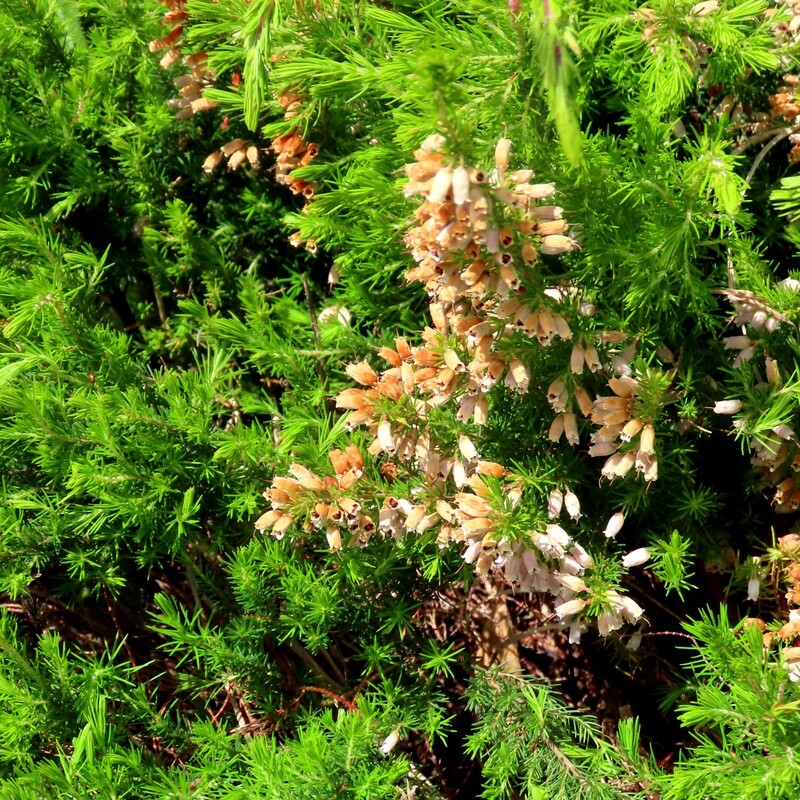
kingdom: Plantae
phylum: Tracheophyta
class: Magnoliopsida
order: Ericales
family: Ericaceae
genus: Erica
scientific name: Erica lusitanica
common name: Spanish heath
